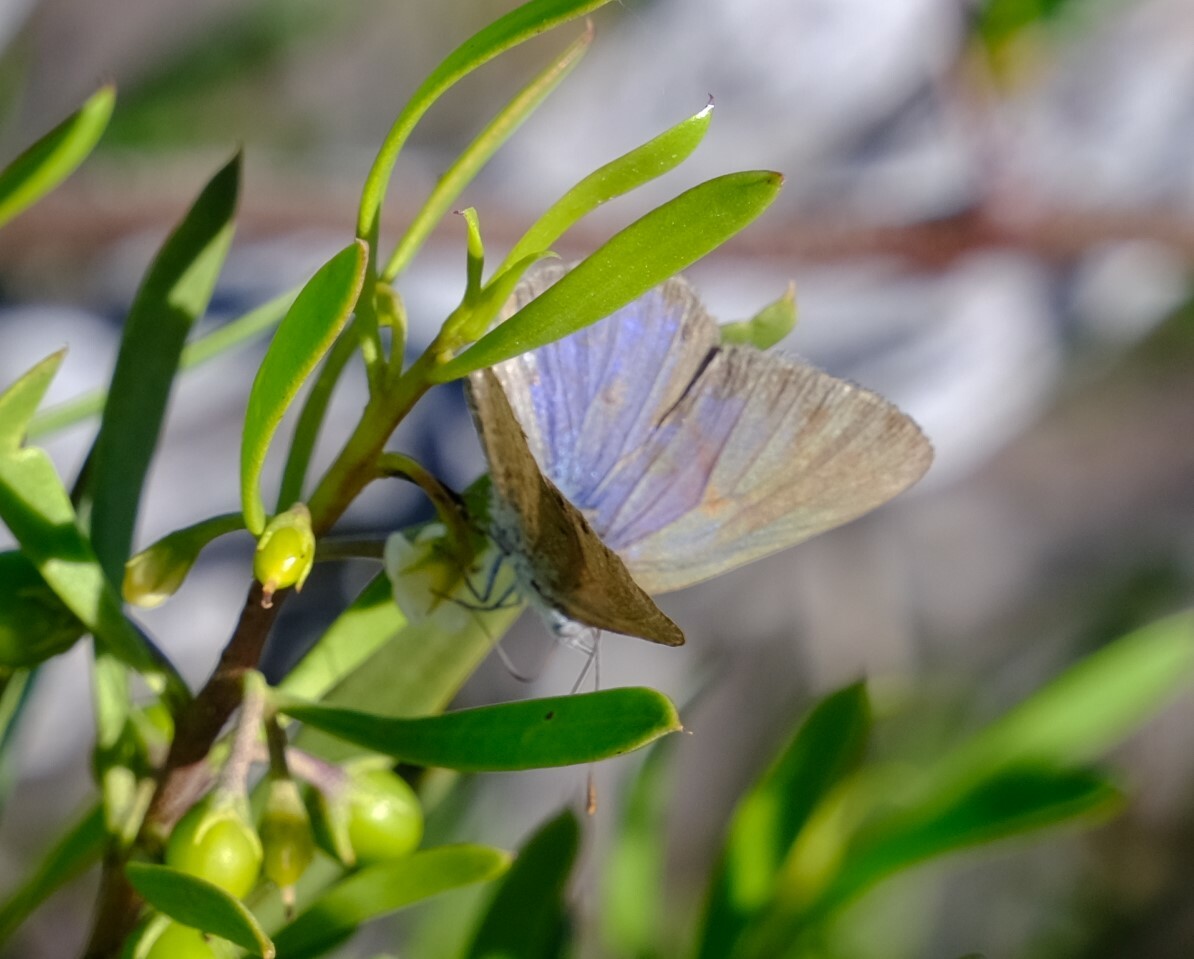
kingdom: Animalia
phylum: Arthropoda
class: Insecta
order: Lepidoptera
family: Lycaenidae
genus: Candalides
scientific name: Candalides
